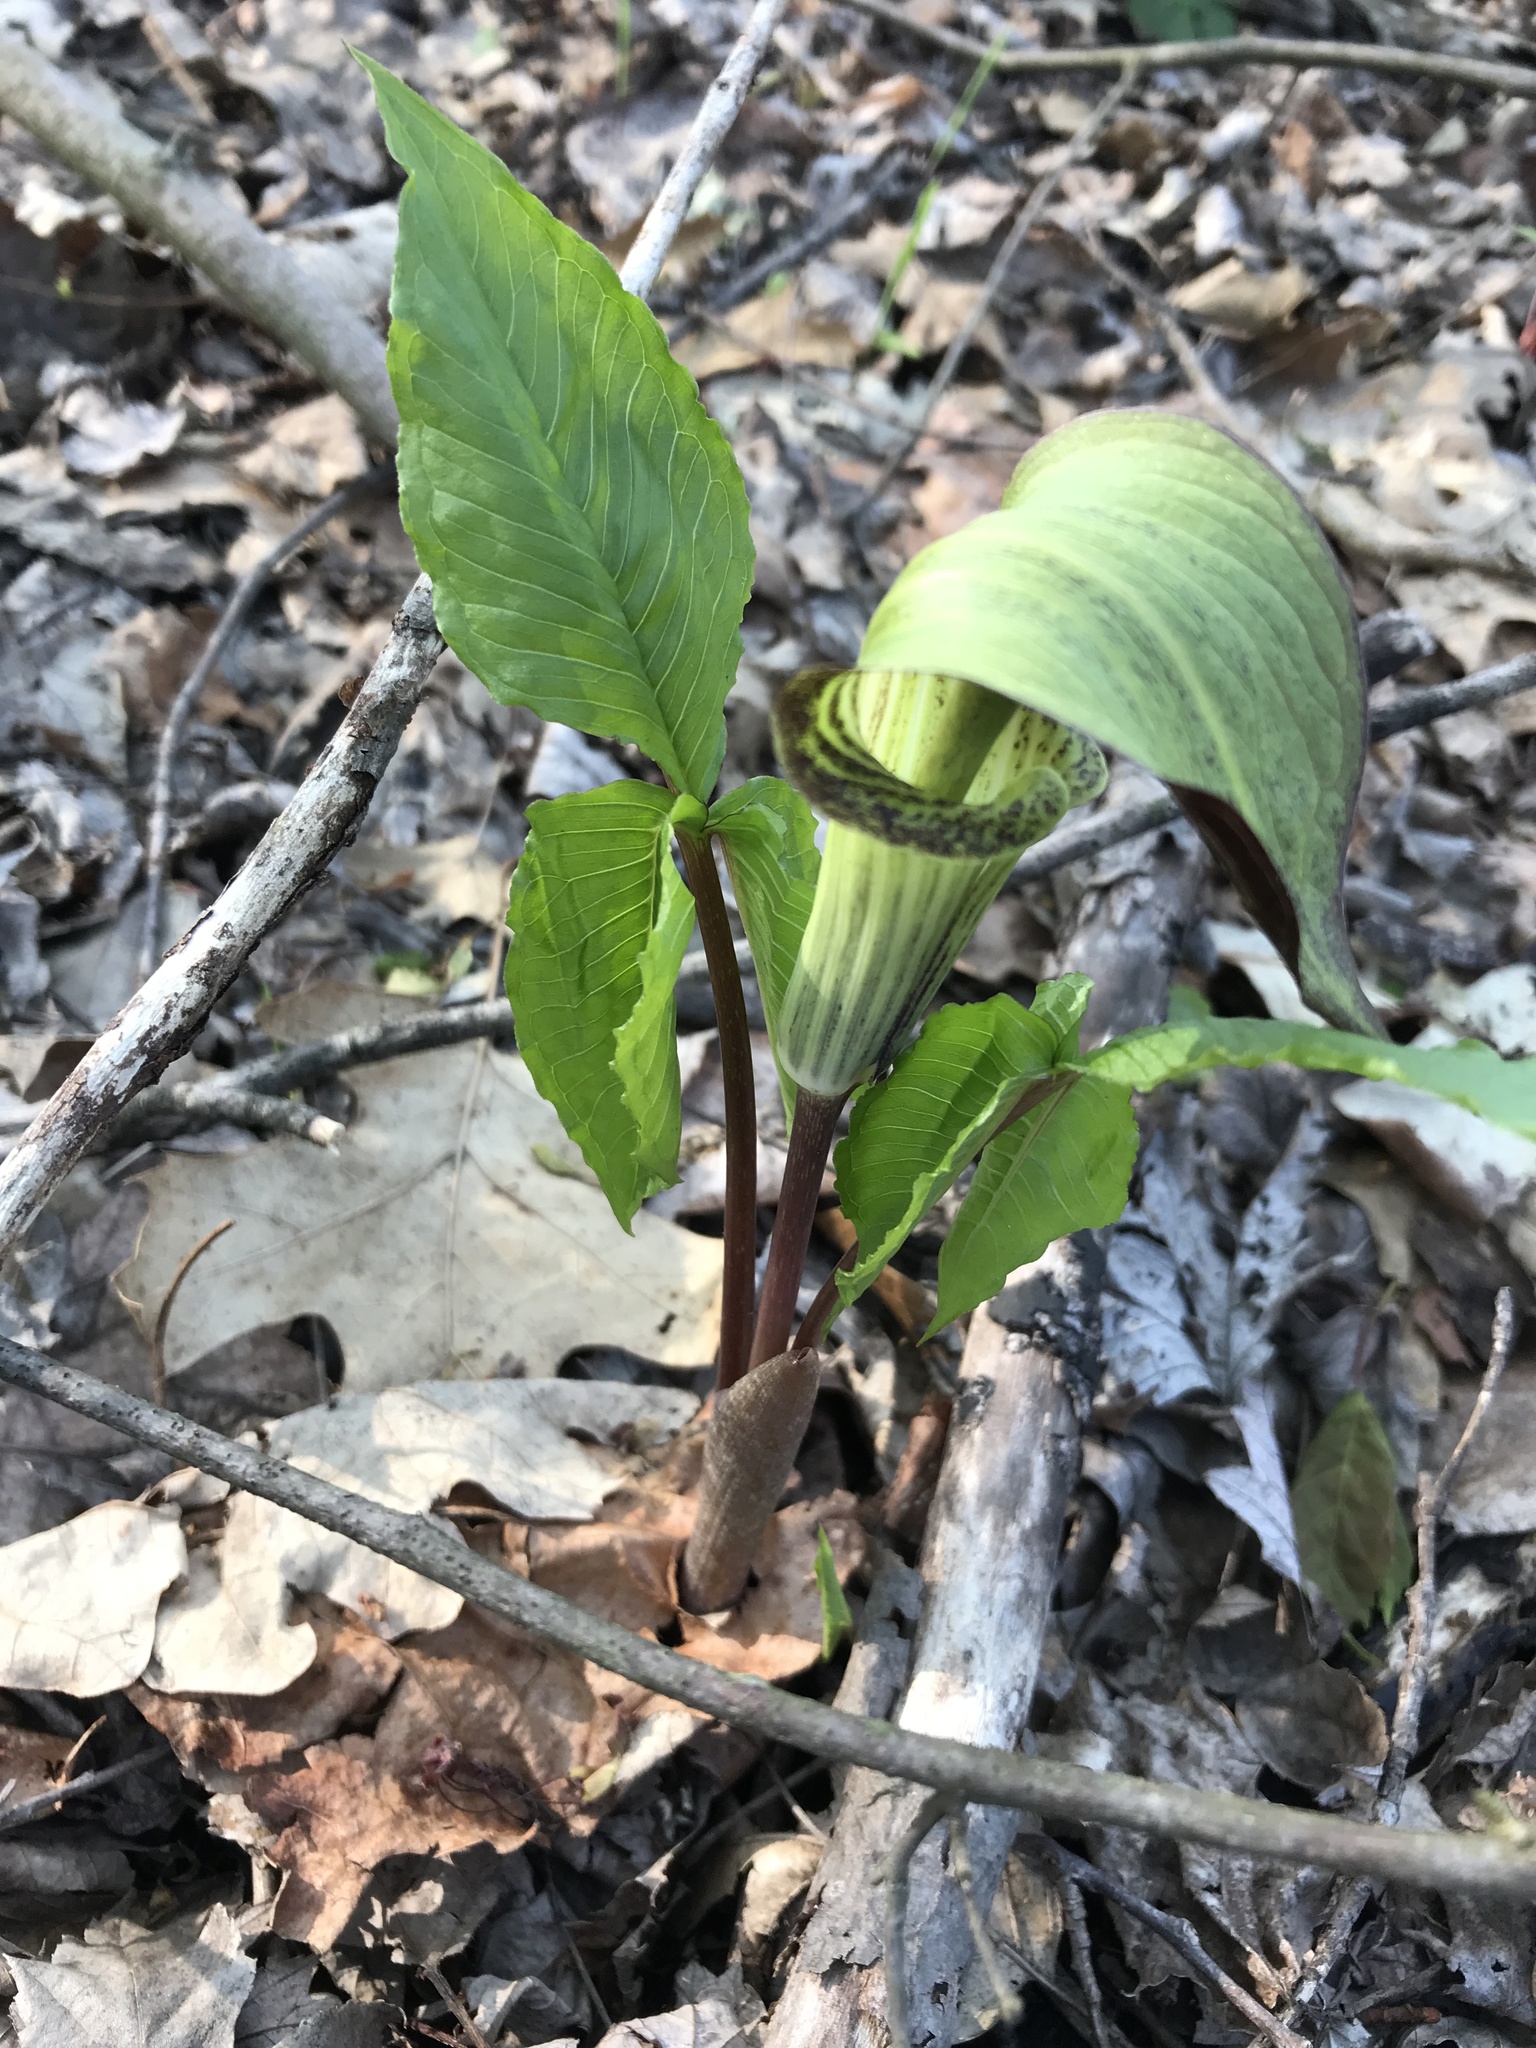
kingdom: Plantae
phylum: Tracheophyta
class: Liliopsida
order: Alismatales
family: Araceae
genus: Arisaema
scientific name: Arisaema triphyllum
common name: Jack-in-the-pulpit
